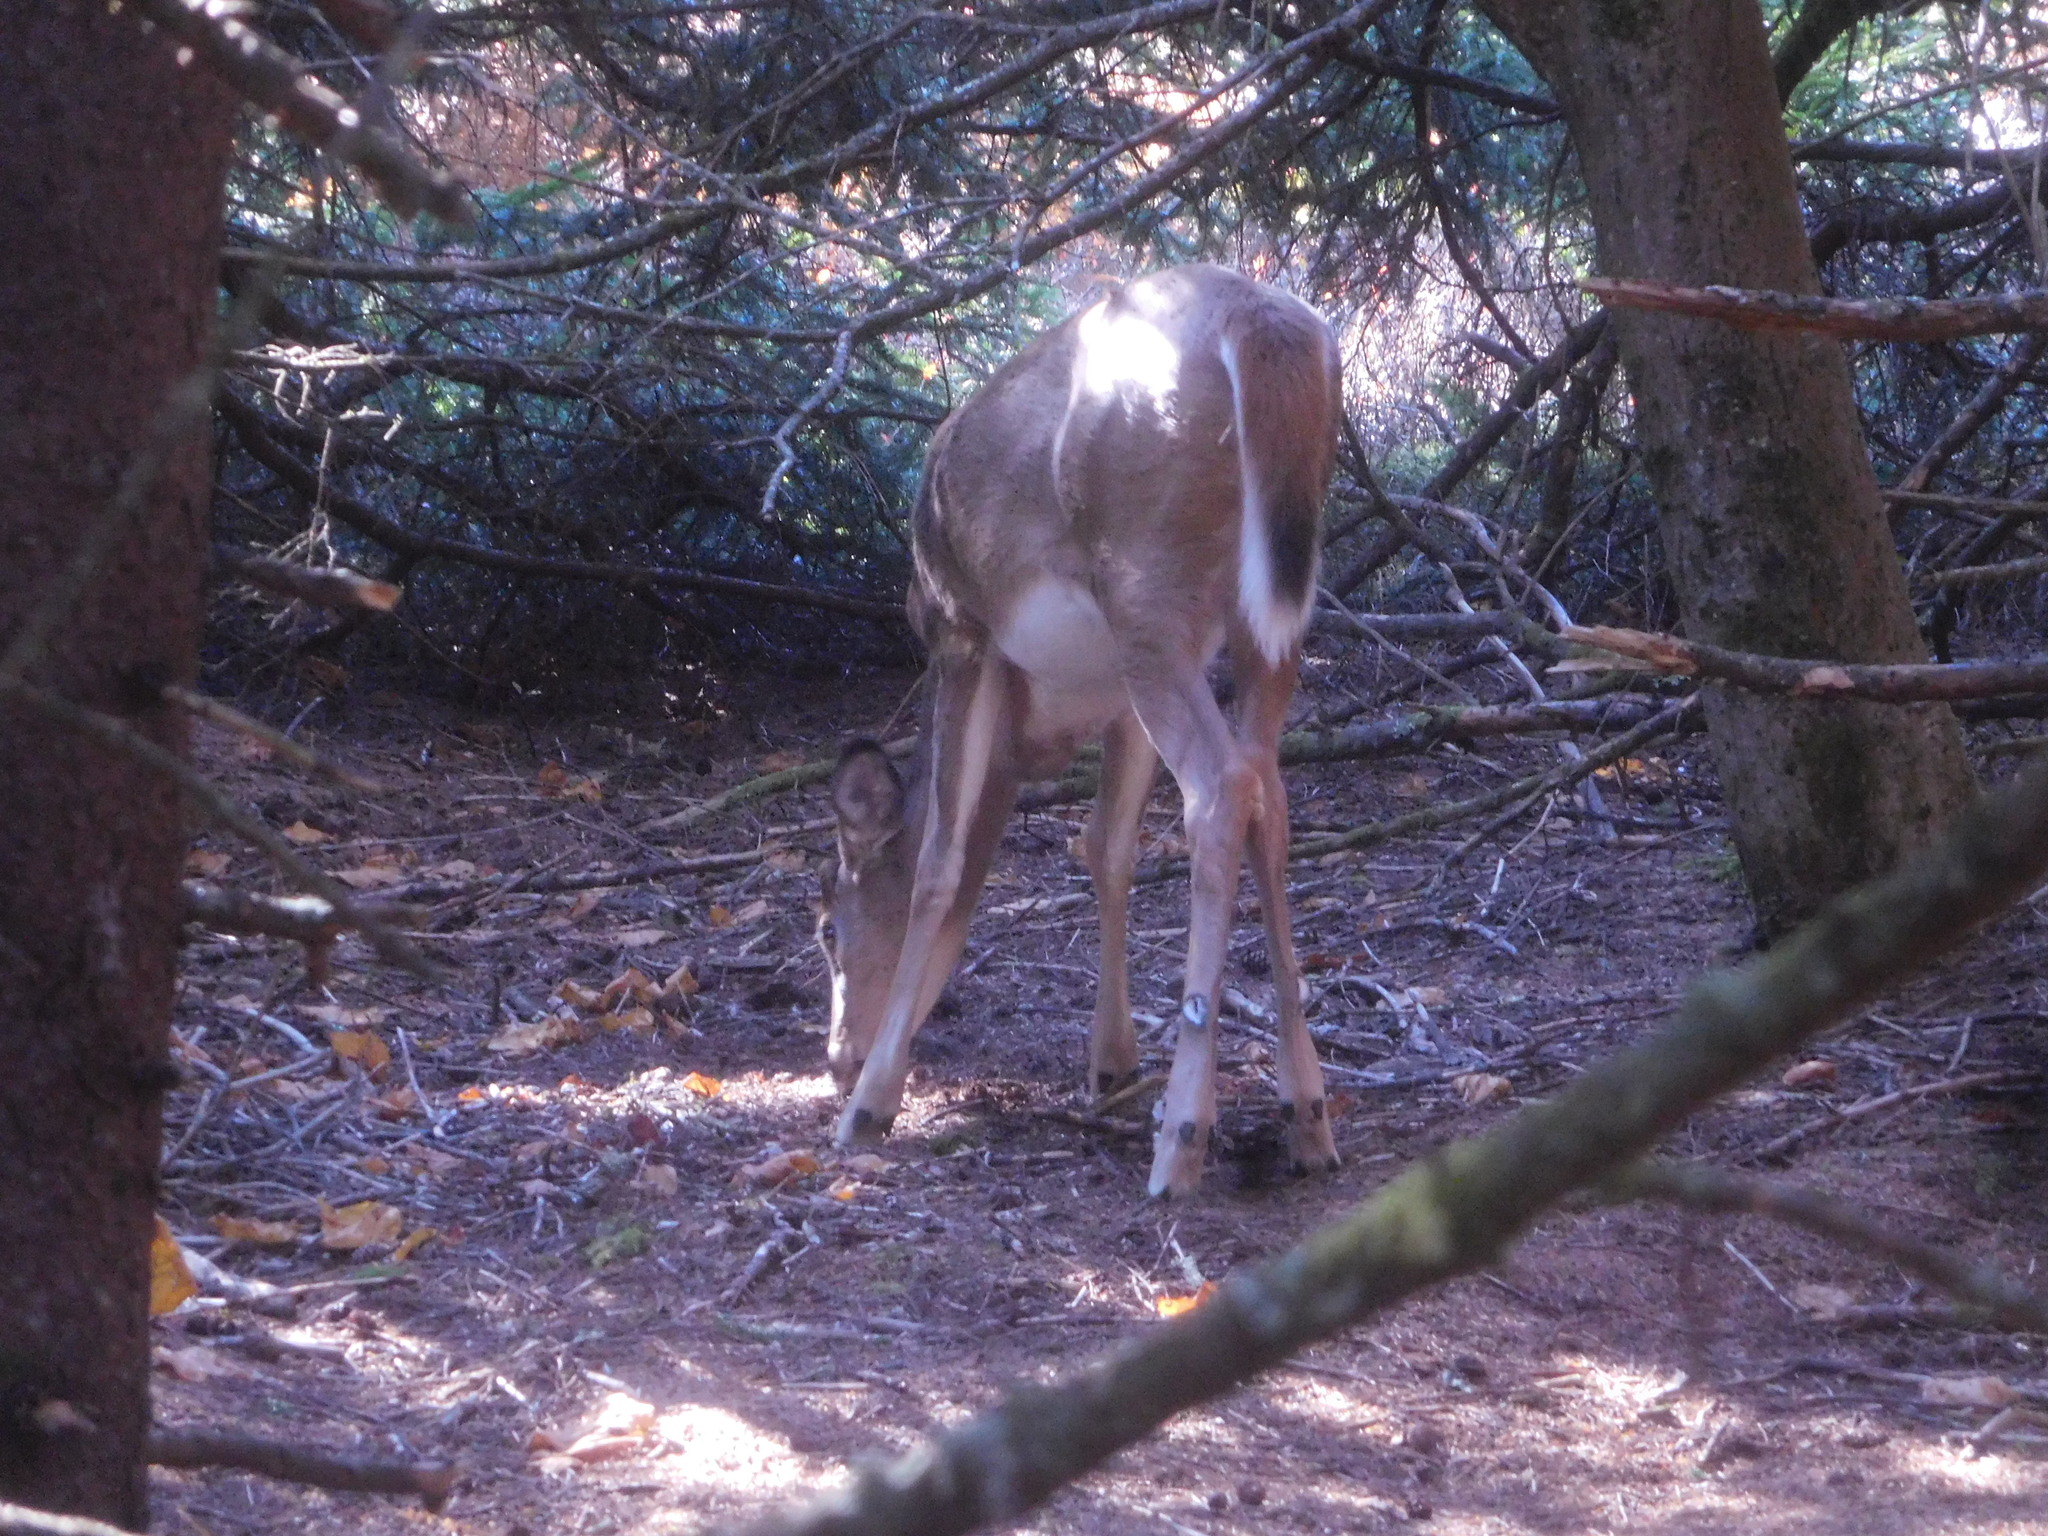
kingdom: Animalia
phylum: Chordata
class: Mammalia
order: Artiodactyla
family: Cervidae
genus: Odocoileus
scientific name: Odocoileus virginianus
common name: White-tailed deer
